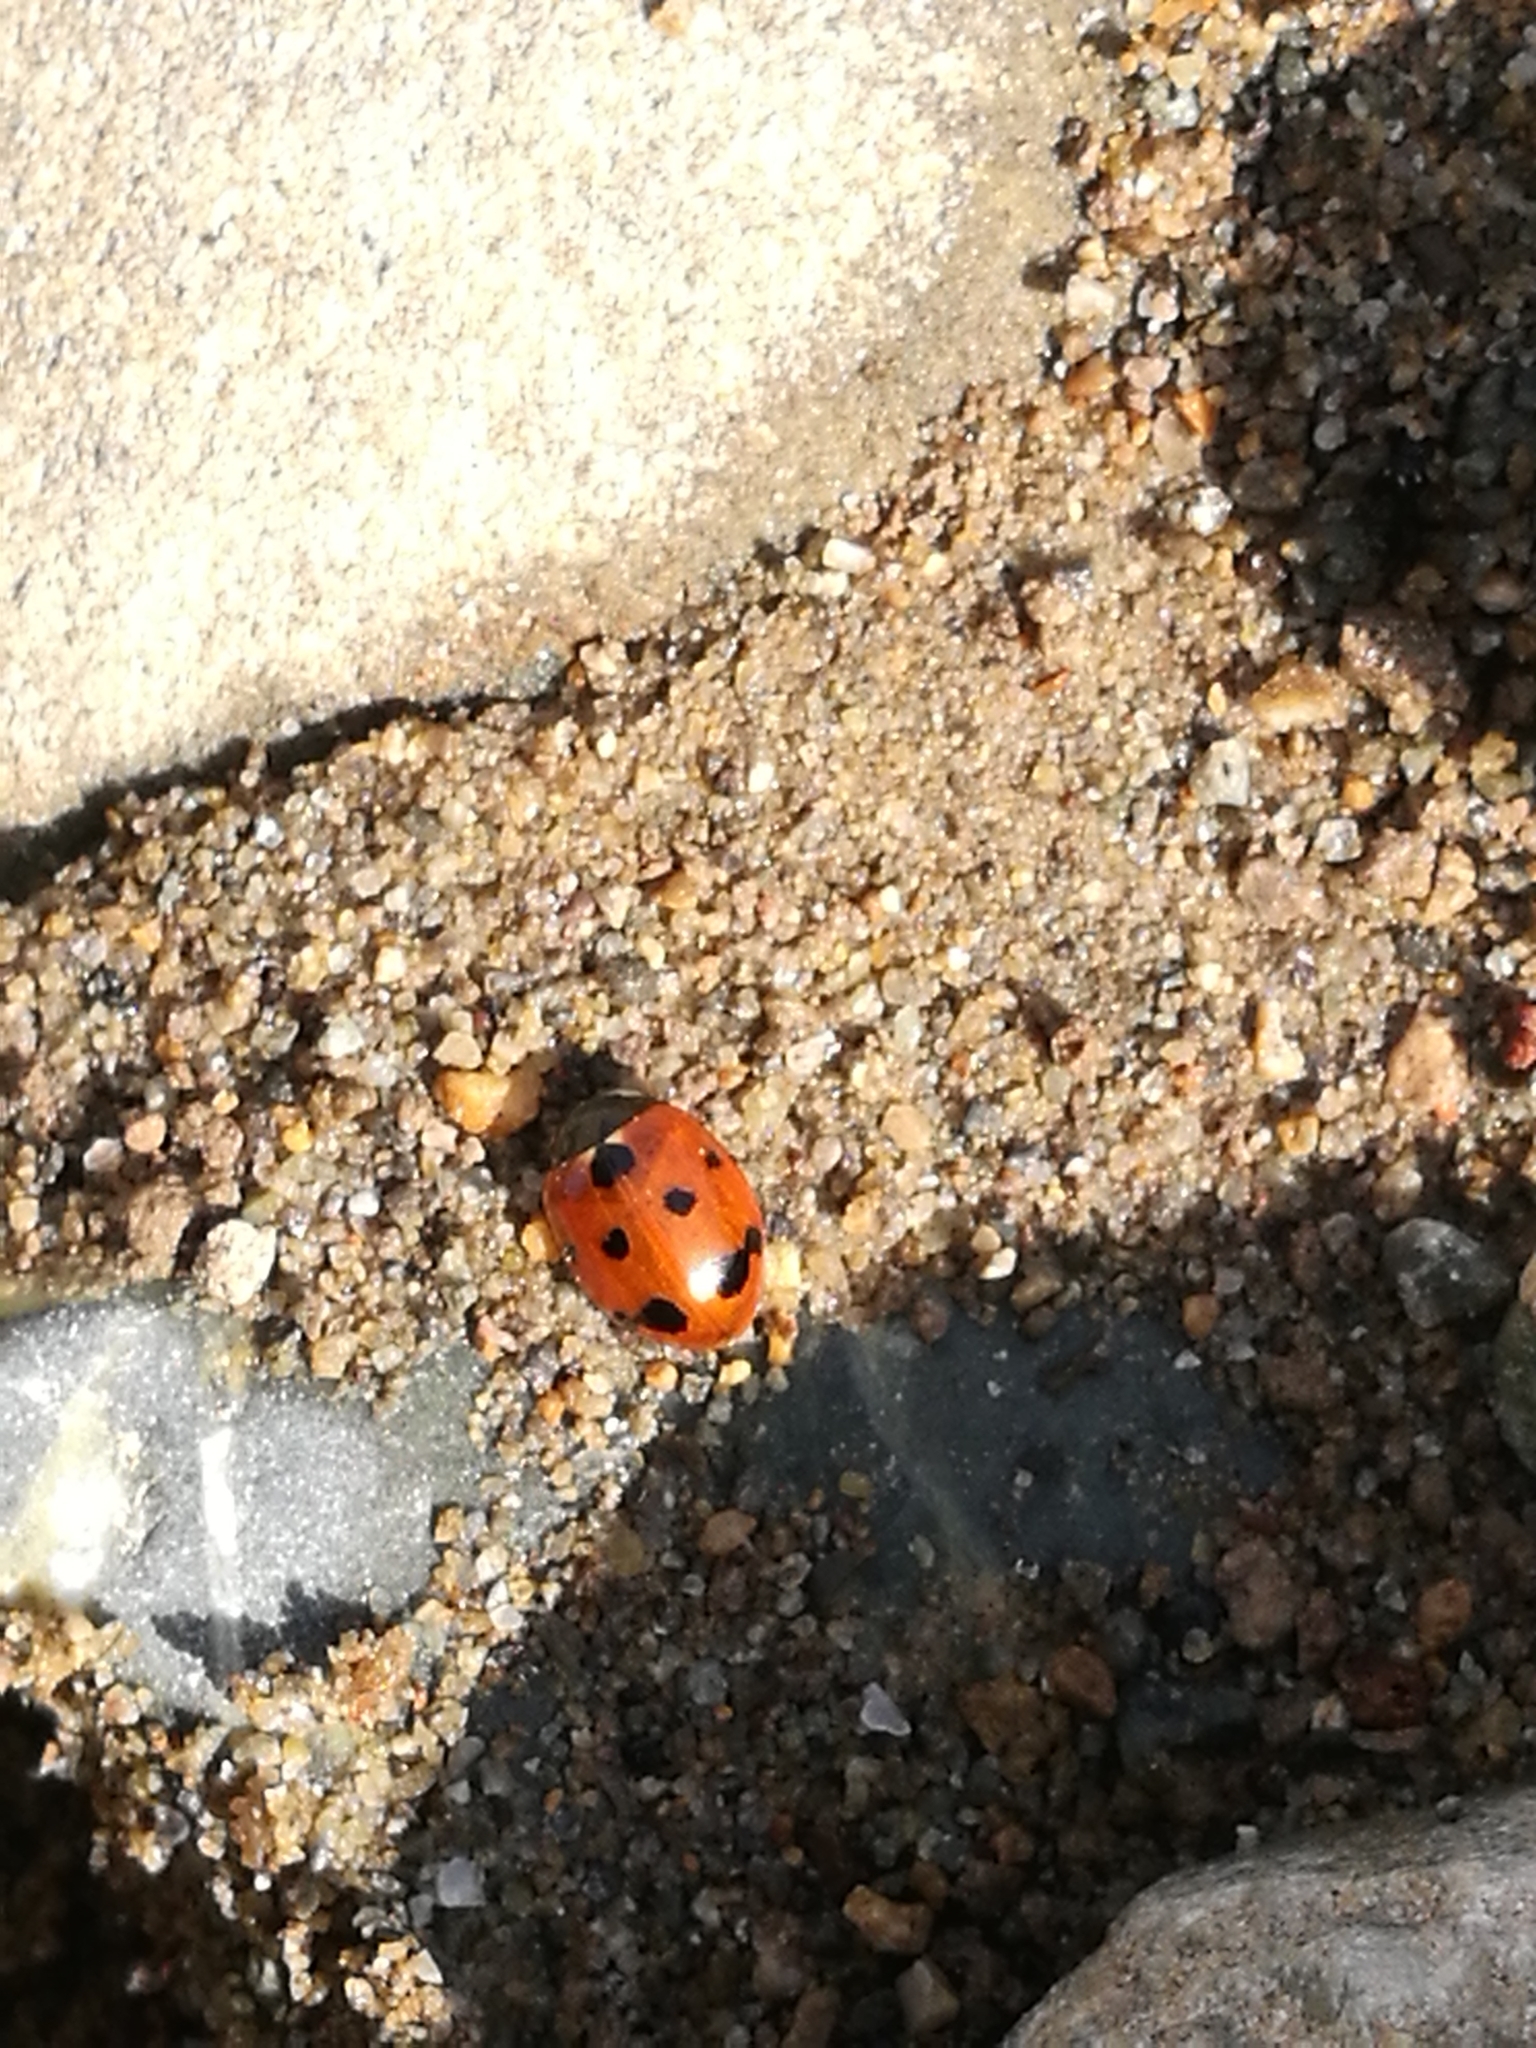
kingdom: Animalia
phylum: Arthropoda
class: Insecta
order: Coleoptera
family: Coccinellidae
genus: Coccinella
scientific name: Coccinella undecimpunctata
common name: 11-spot ladybird
